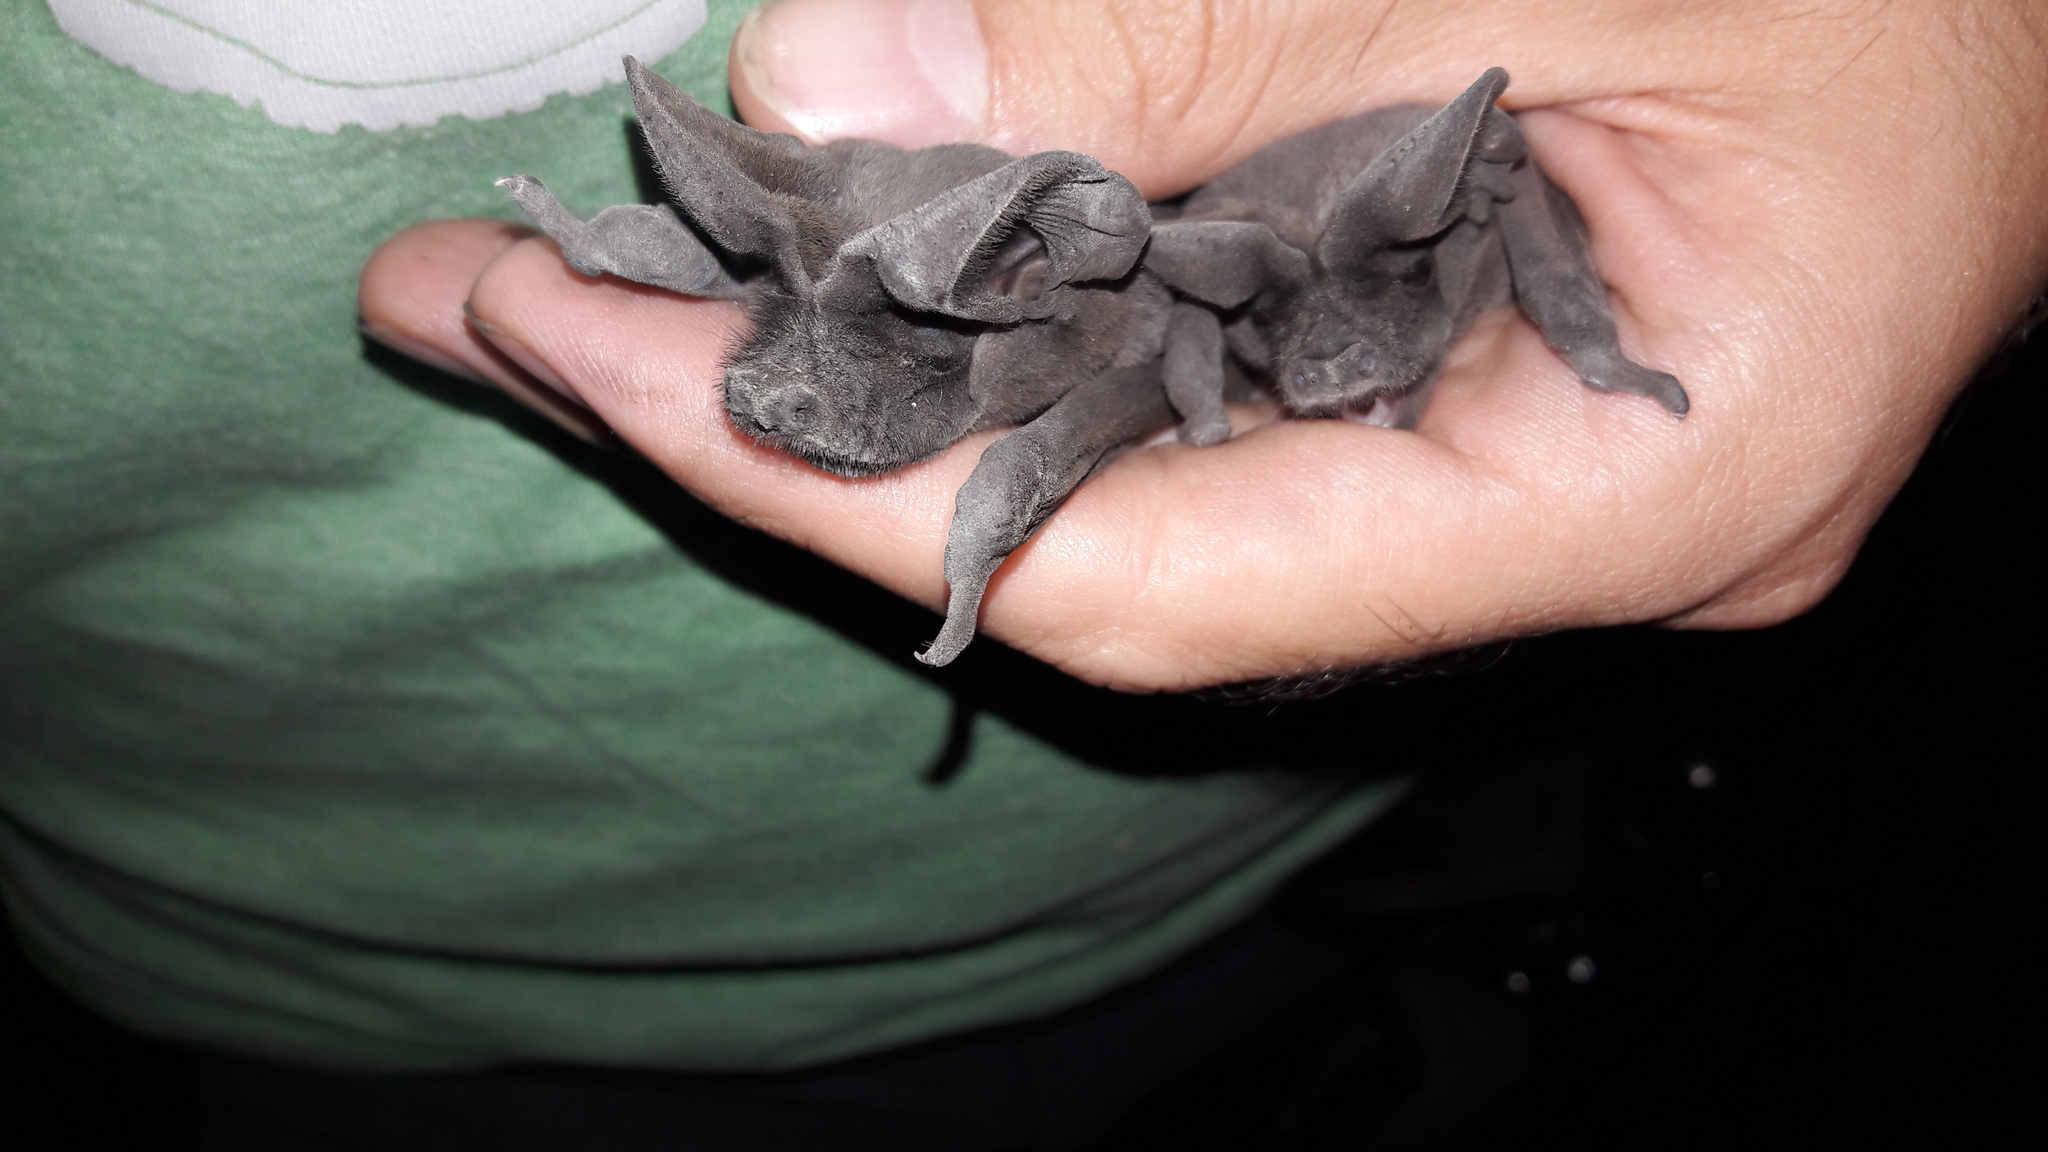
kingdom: Animalia
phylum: Chordata
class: Mammalia
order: Chiroptera
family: Molossidae
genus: Tadarida
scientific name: Tadarida teniotis
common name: European free-tailed bat
